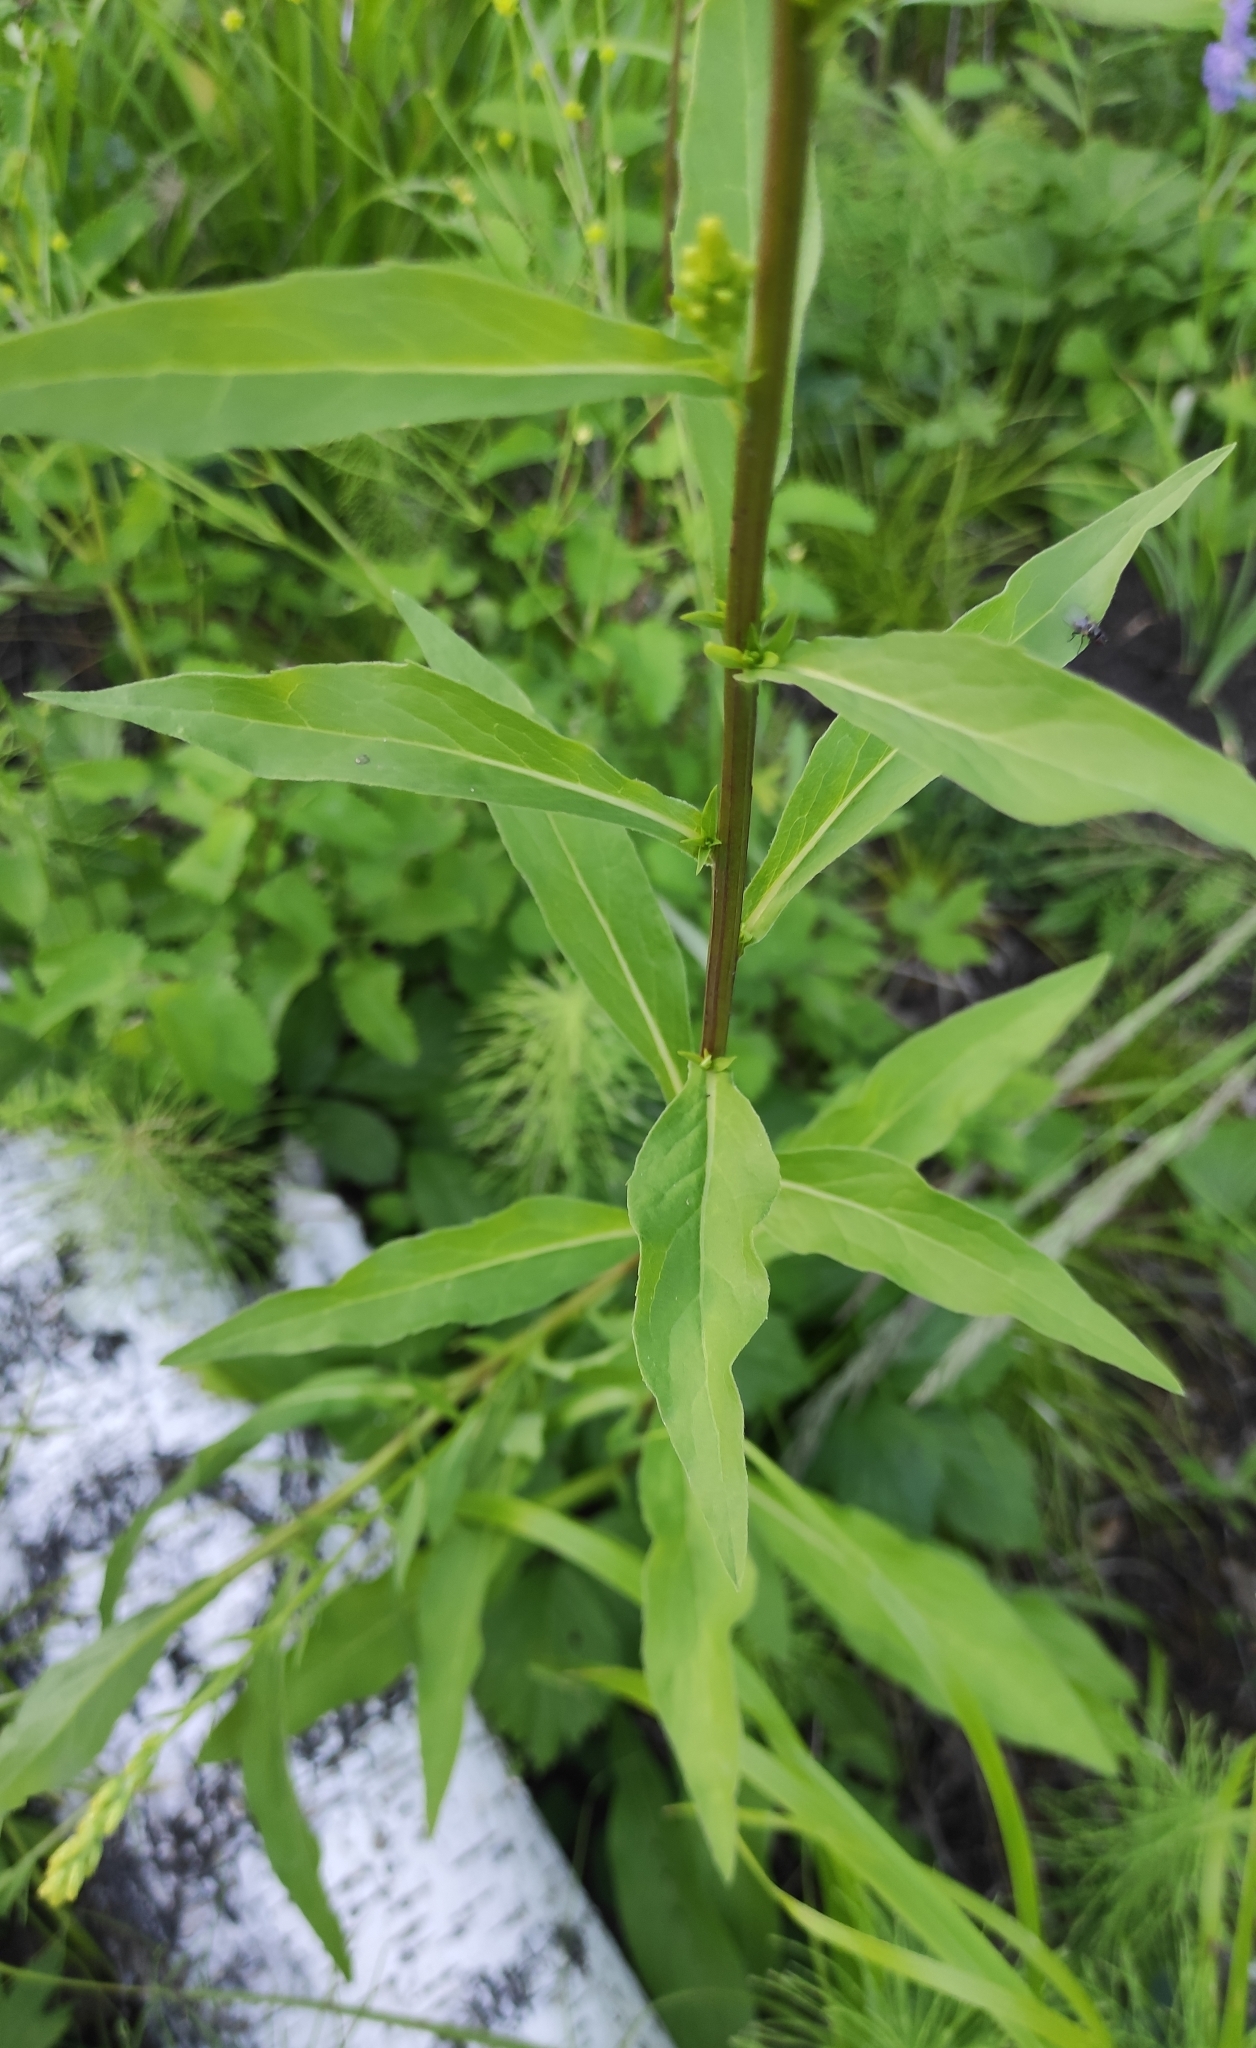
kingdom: Plantae
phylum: Tracheophyta
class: Magnoliopsida
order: Asterales
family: Asteraceae
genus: Solidago
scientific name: Solidago dahurica
